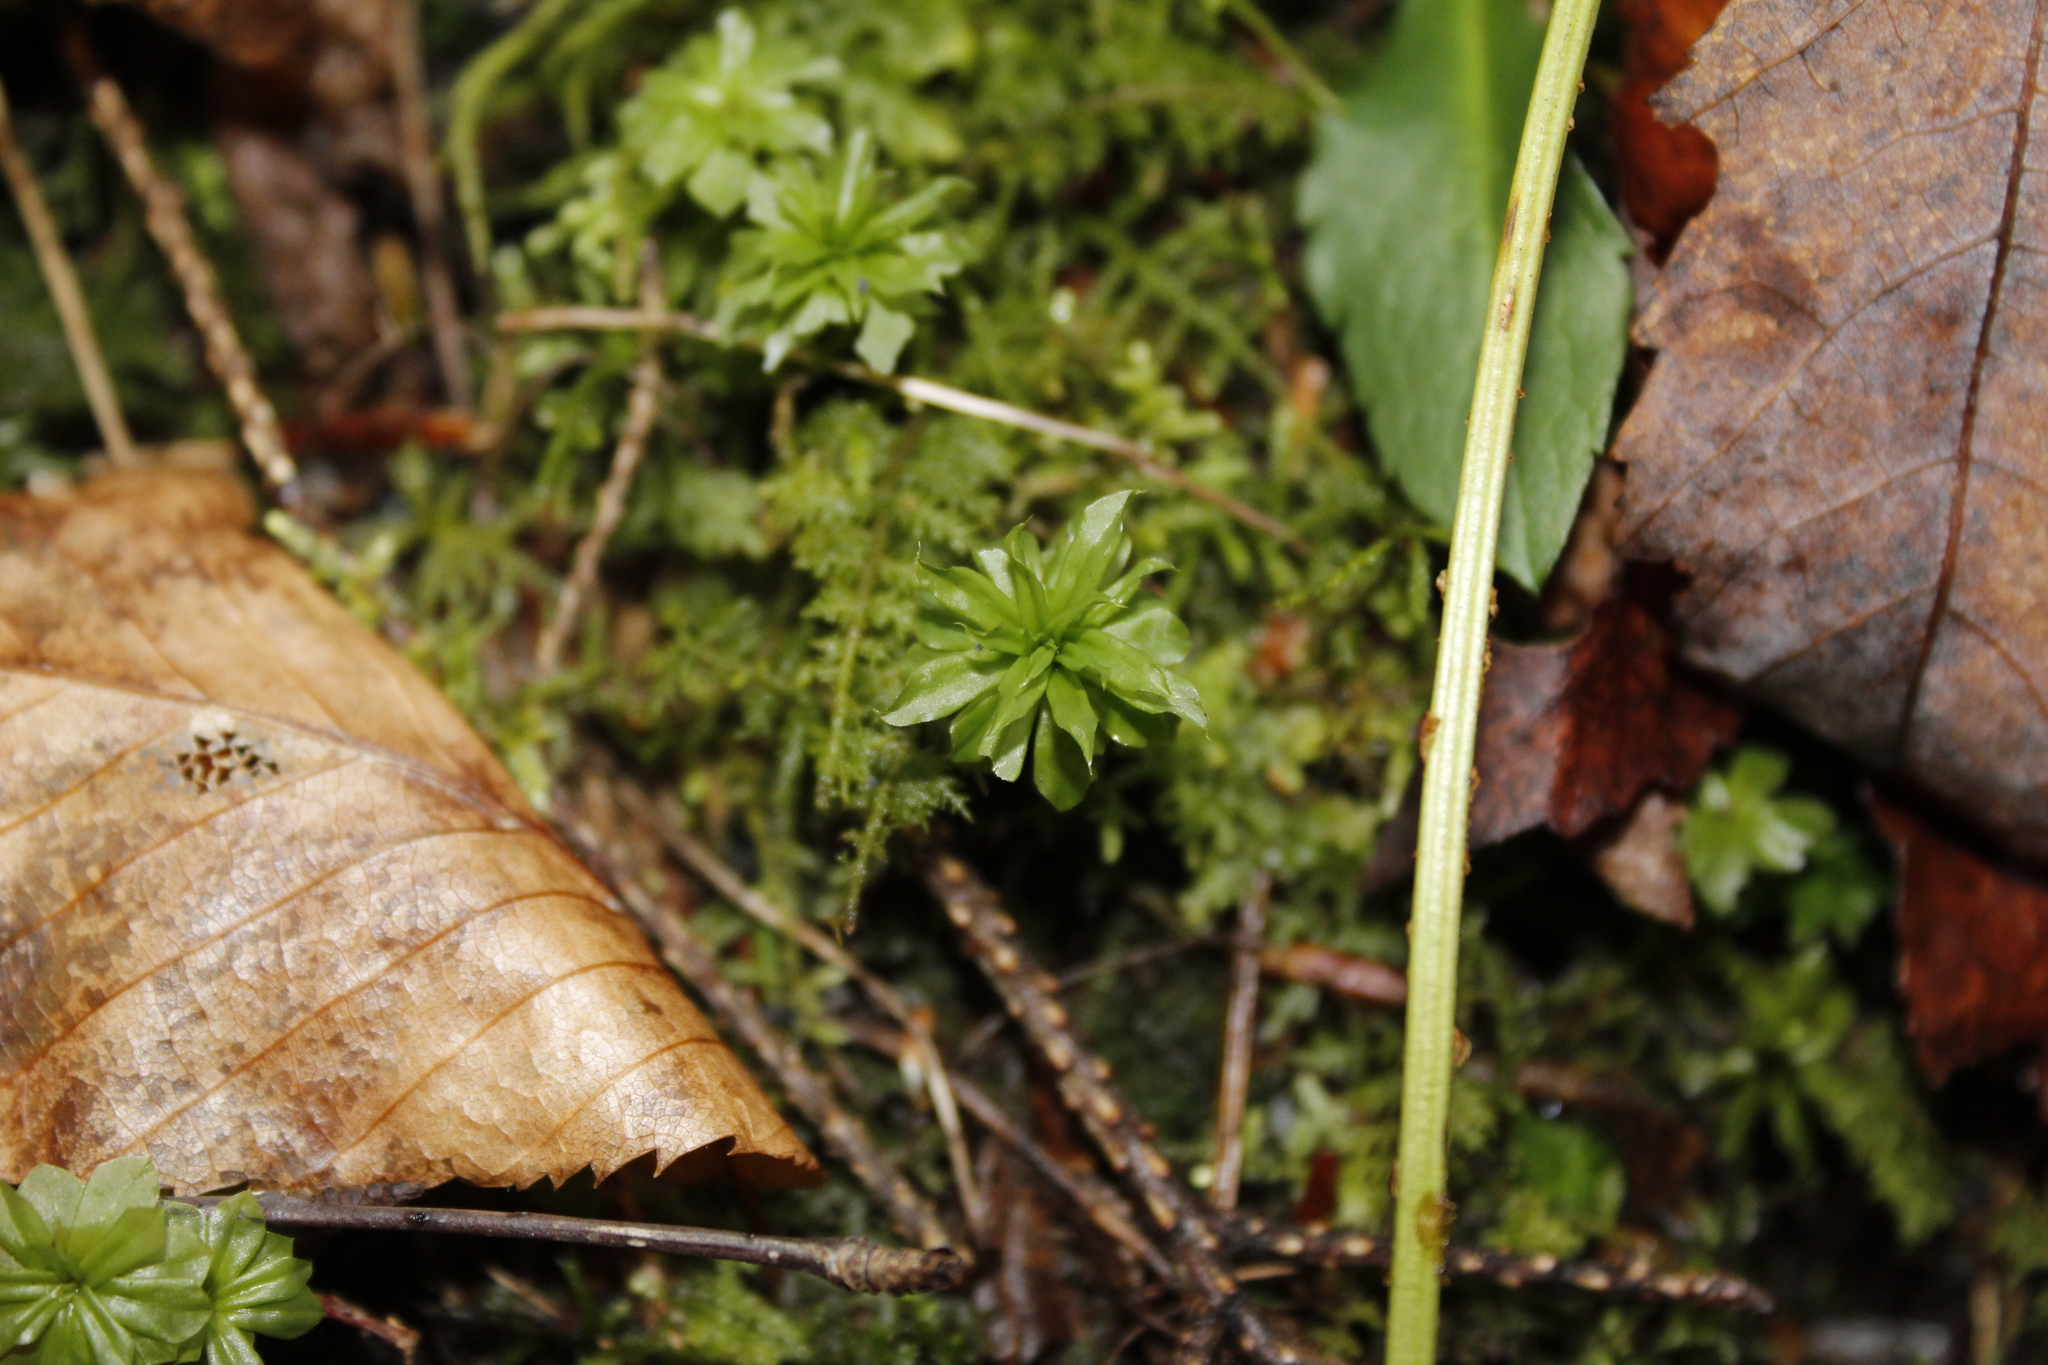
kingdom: Plantae
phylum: Bryophyta
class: Bryopsida
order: Bryales
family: Bryaceae
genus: Rhodobryum
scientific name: Rhodobryum ontariense
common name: Ontario rhodobryum moss
